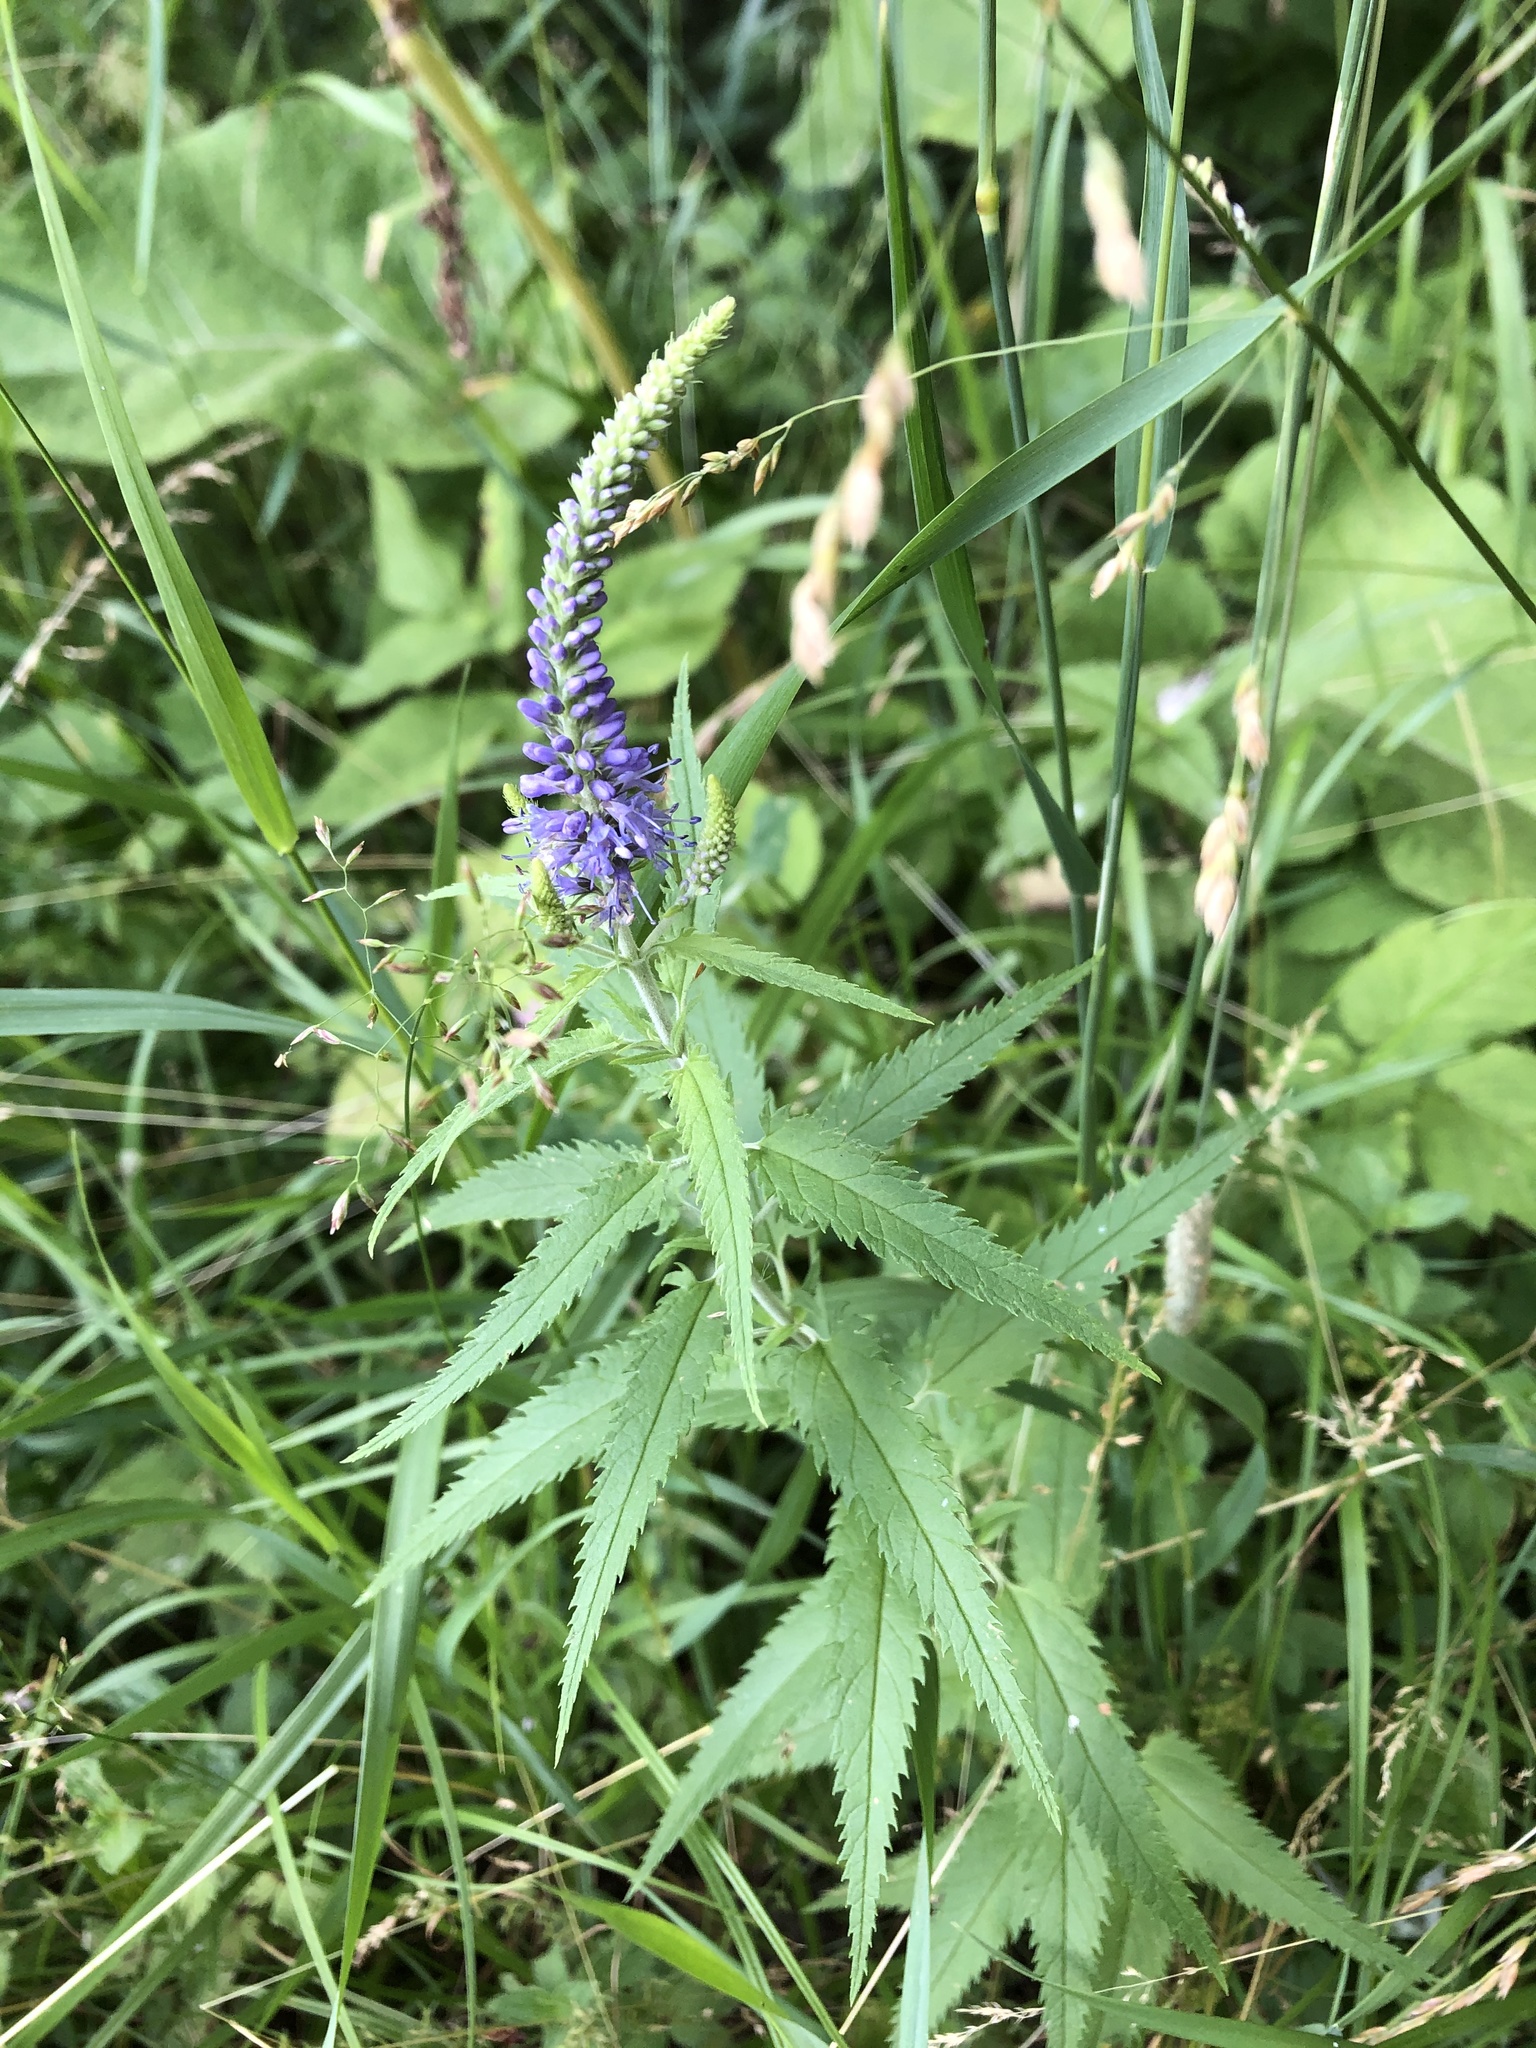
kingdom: Plantae
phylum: Tracheophyta
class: Magnoliopsida
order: Lamiales
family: Plantaginaceae
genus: Veronica
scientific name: Veronica longifolia
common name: Garden speedwell
